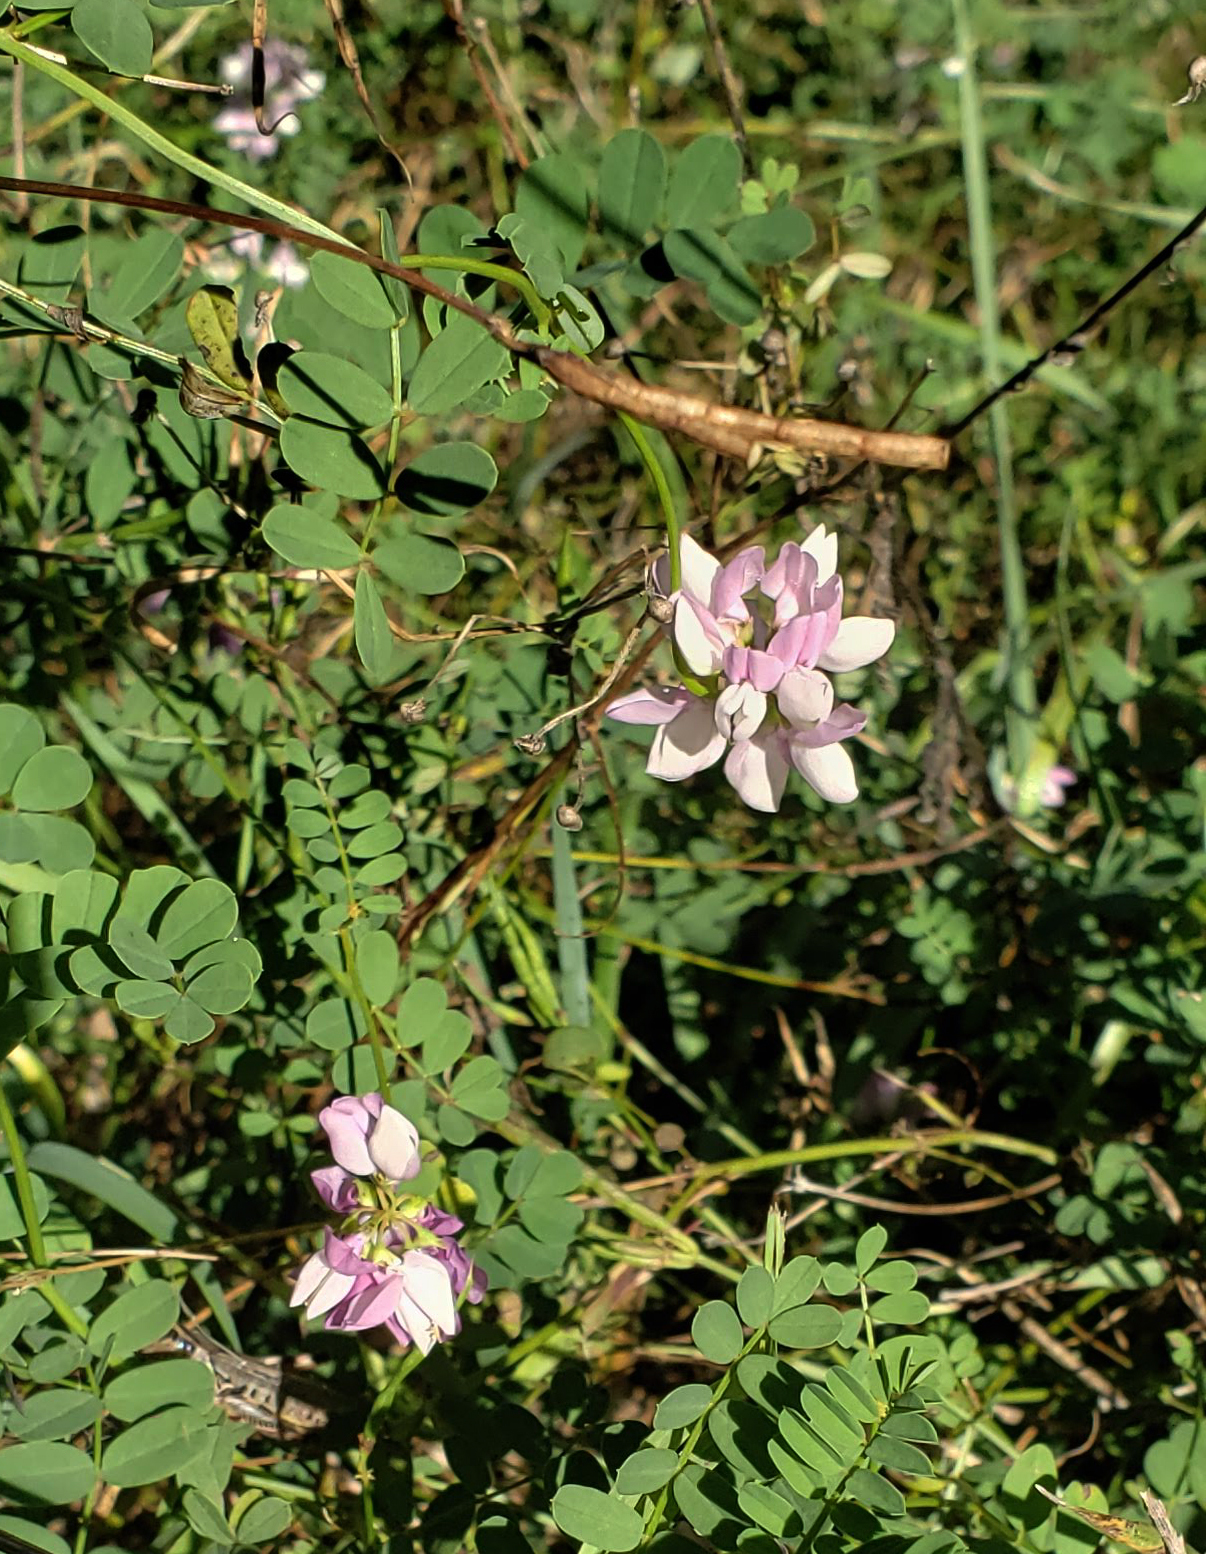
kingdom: Plantae
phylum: Tracheophyta
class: Magnoliopsida
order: Fabales
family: Fabaceae
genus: Coronilla
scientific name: Coronilla varia
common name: Crownvetch
